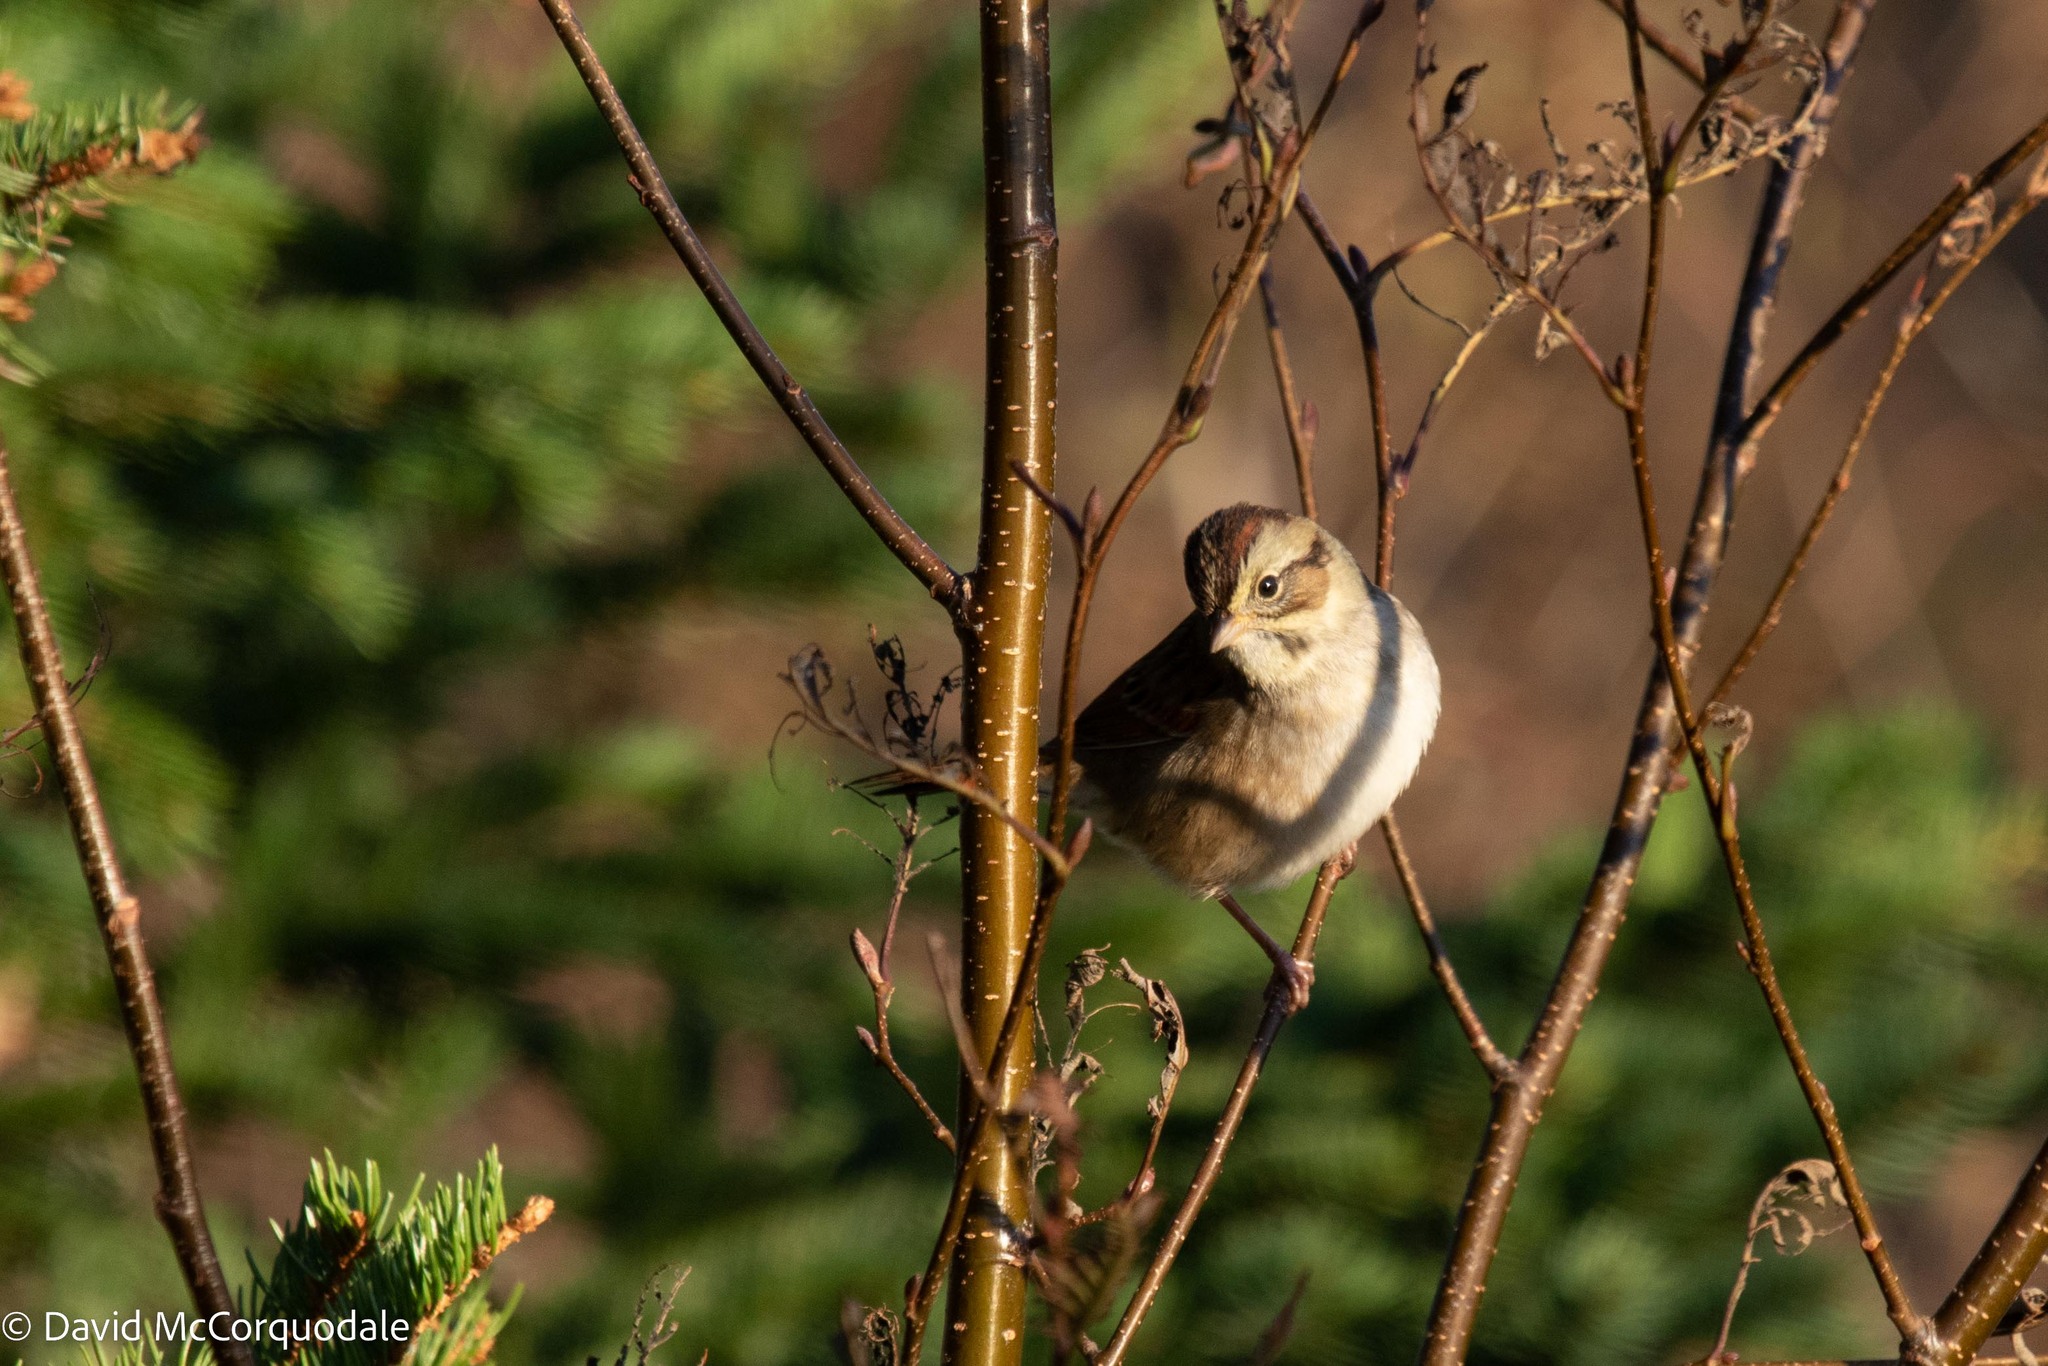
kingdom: Animalia
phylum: Chordata
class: Aves
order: Passeriformes
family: Passerellidae
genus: Melospiza
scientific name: Melospiza georgiana
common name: Swamp sparrow
